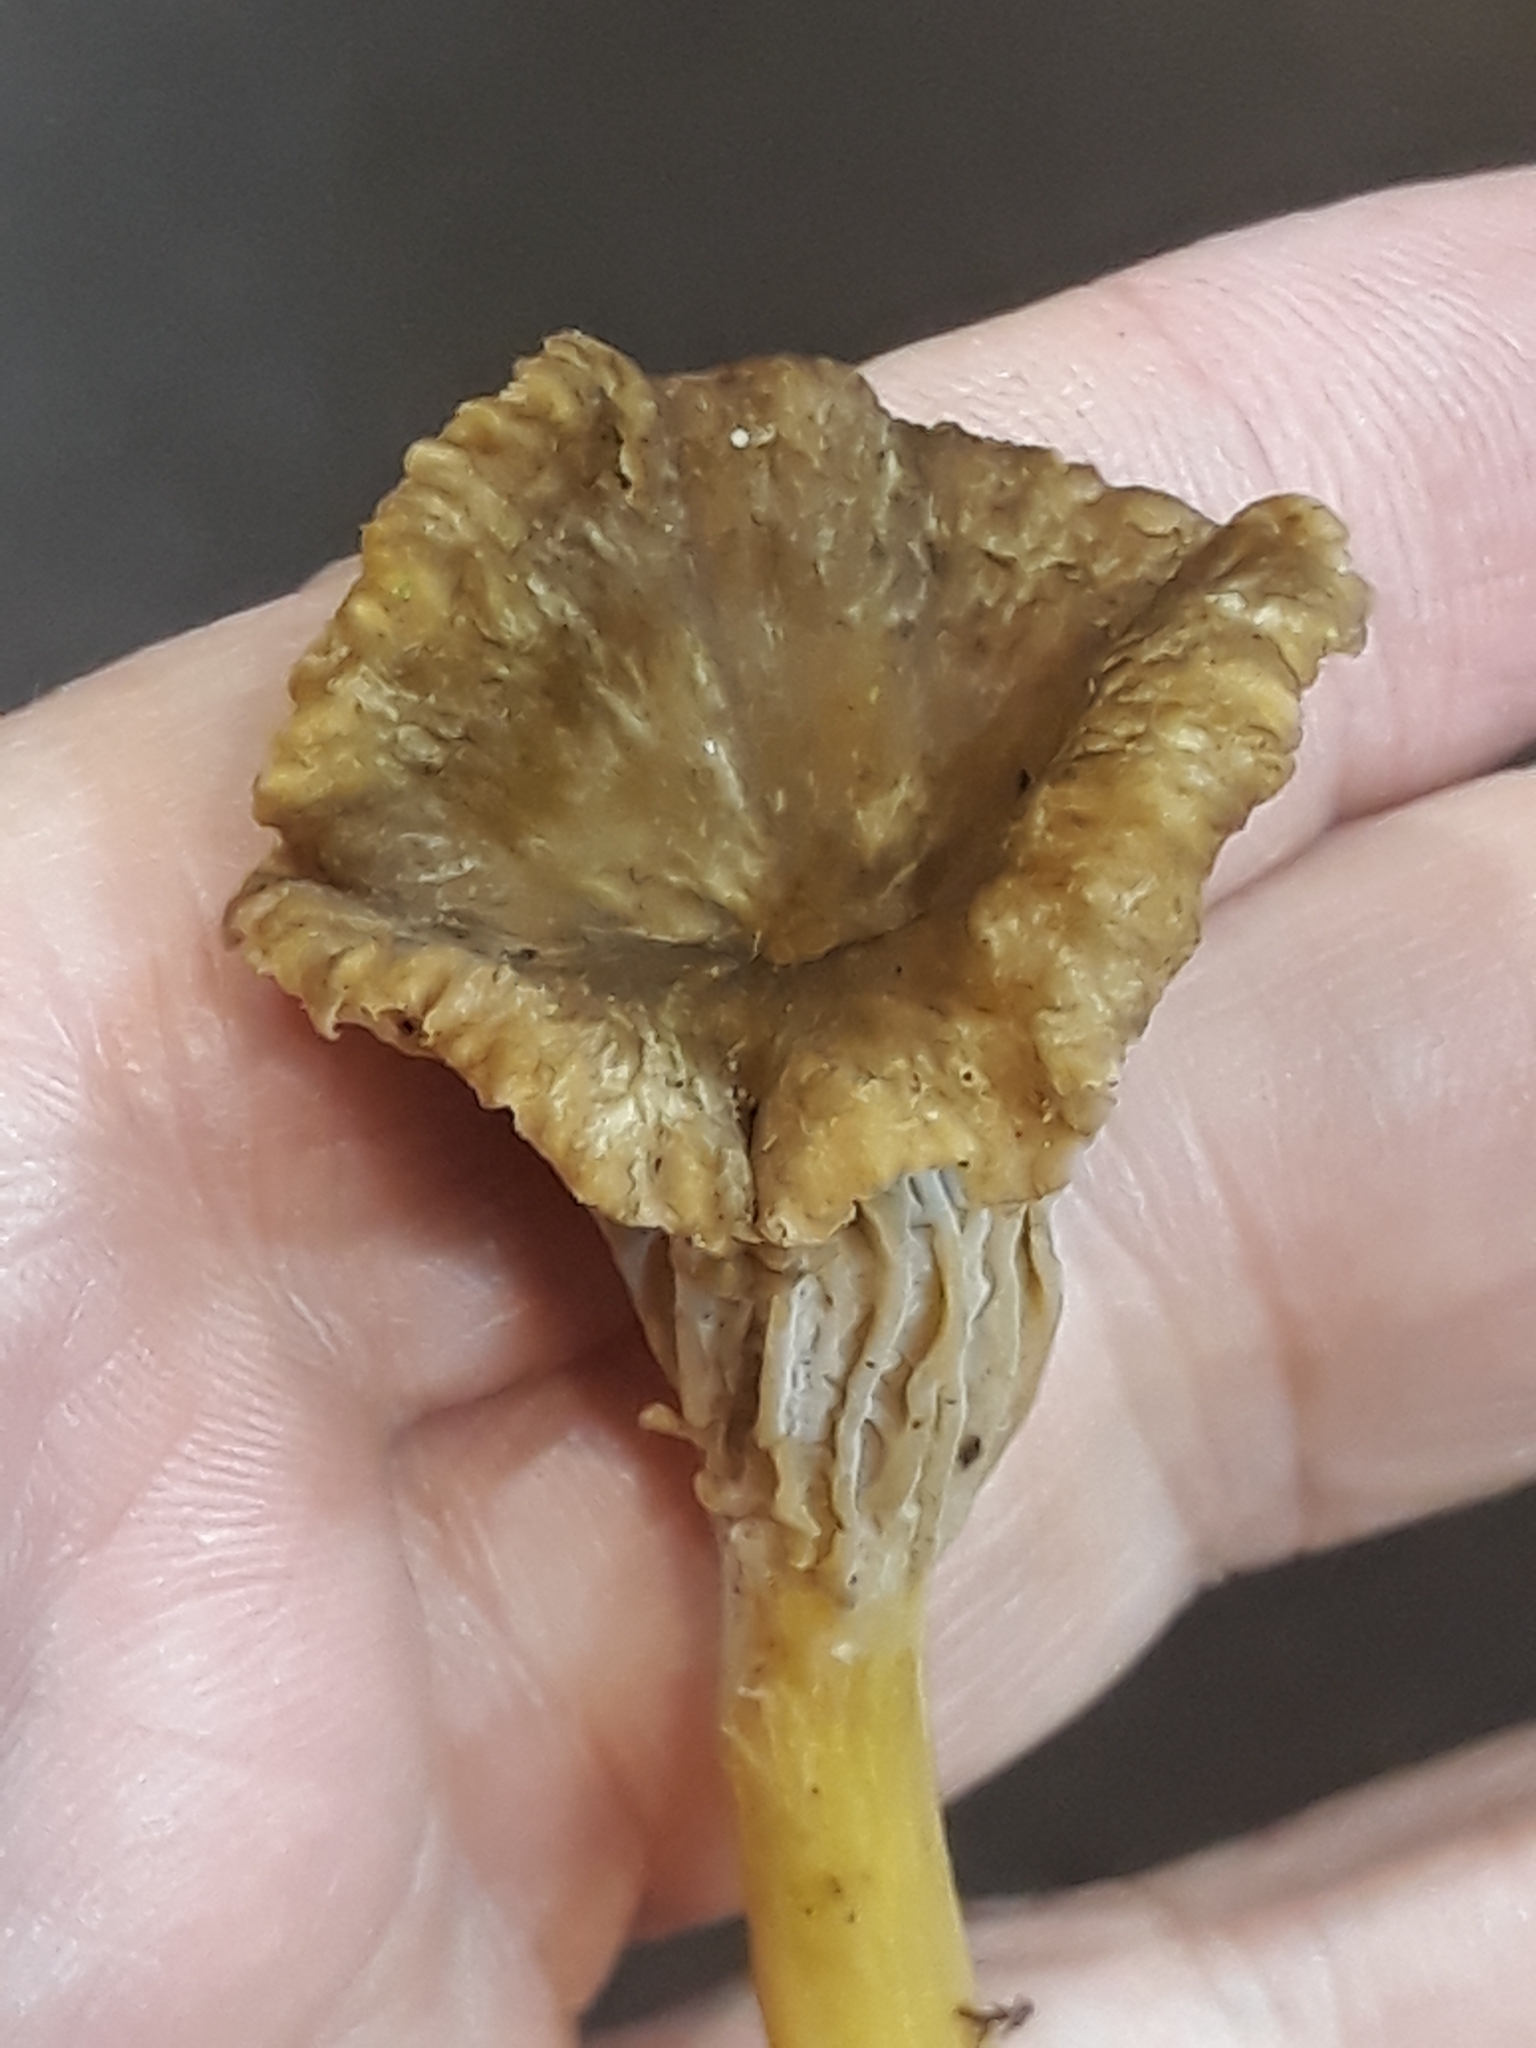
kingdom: Fungi
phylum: Basidiomycota
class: Agaricomycetes
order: Cantharellales
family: Hydnaceae
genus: Craterellus
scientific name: Craterellus tubaeformis
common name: Yellowfoot
